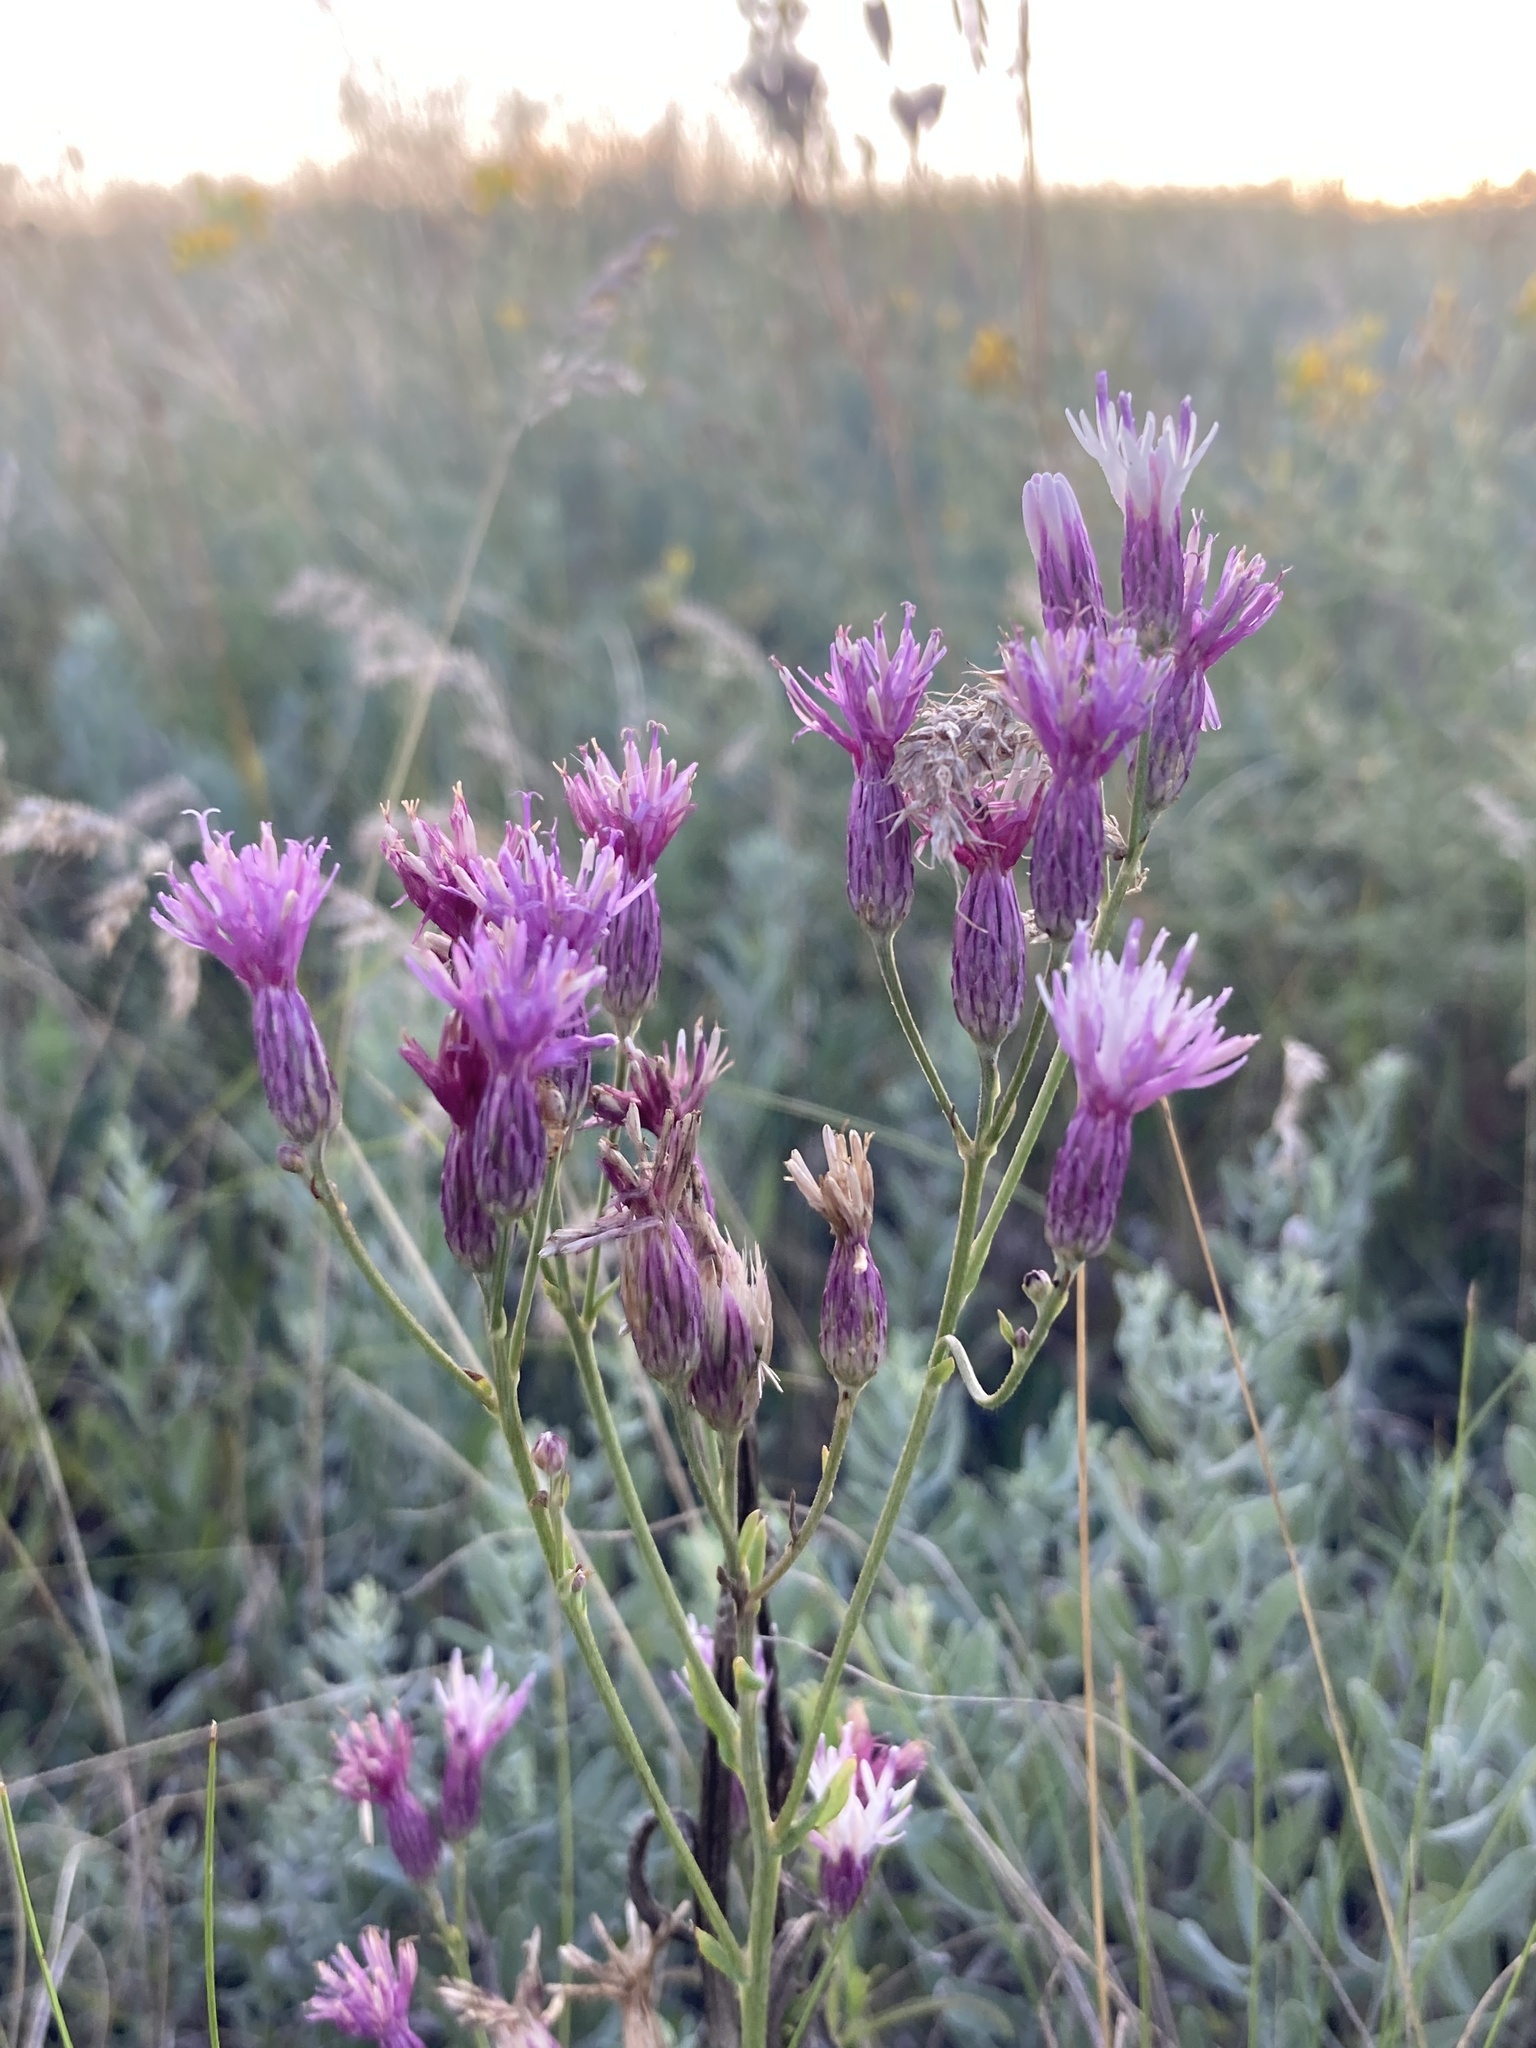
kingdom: Plantae
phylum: Tracheophyta
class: Magnoliopsida
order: Asterales
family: Asteraceae
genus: Jurinea
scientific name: Jurinea multiflora
